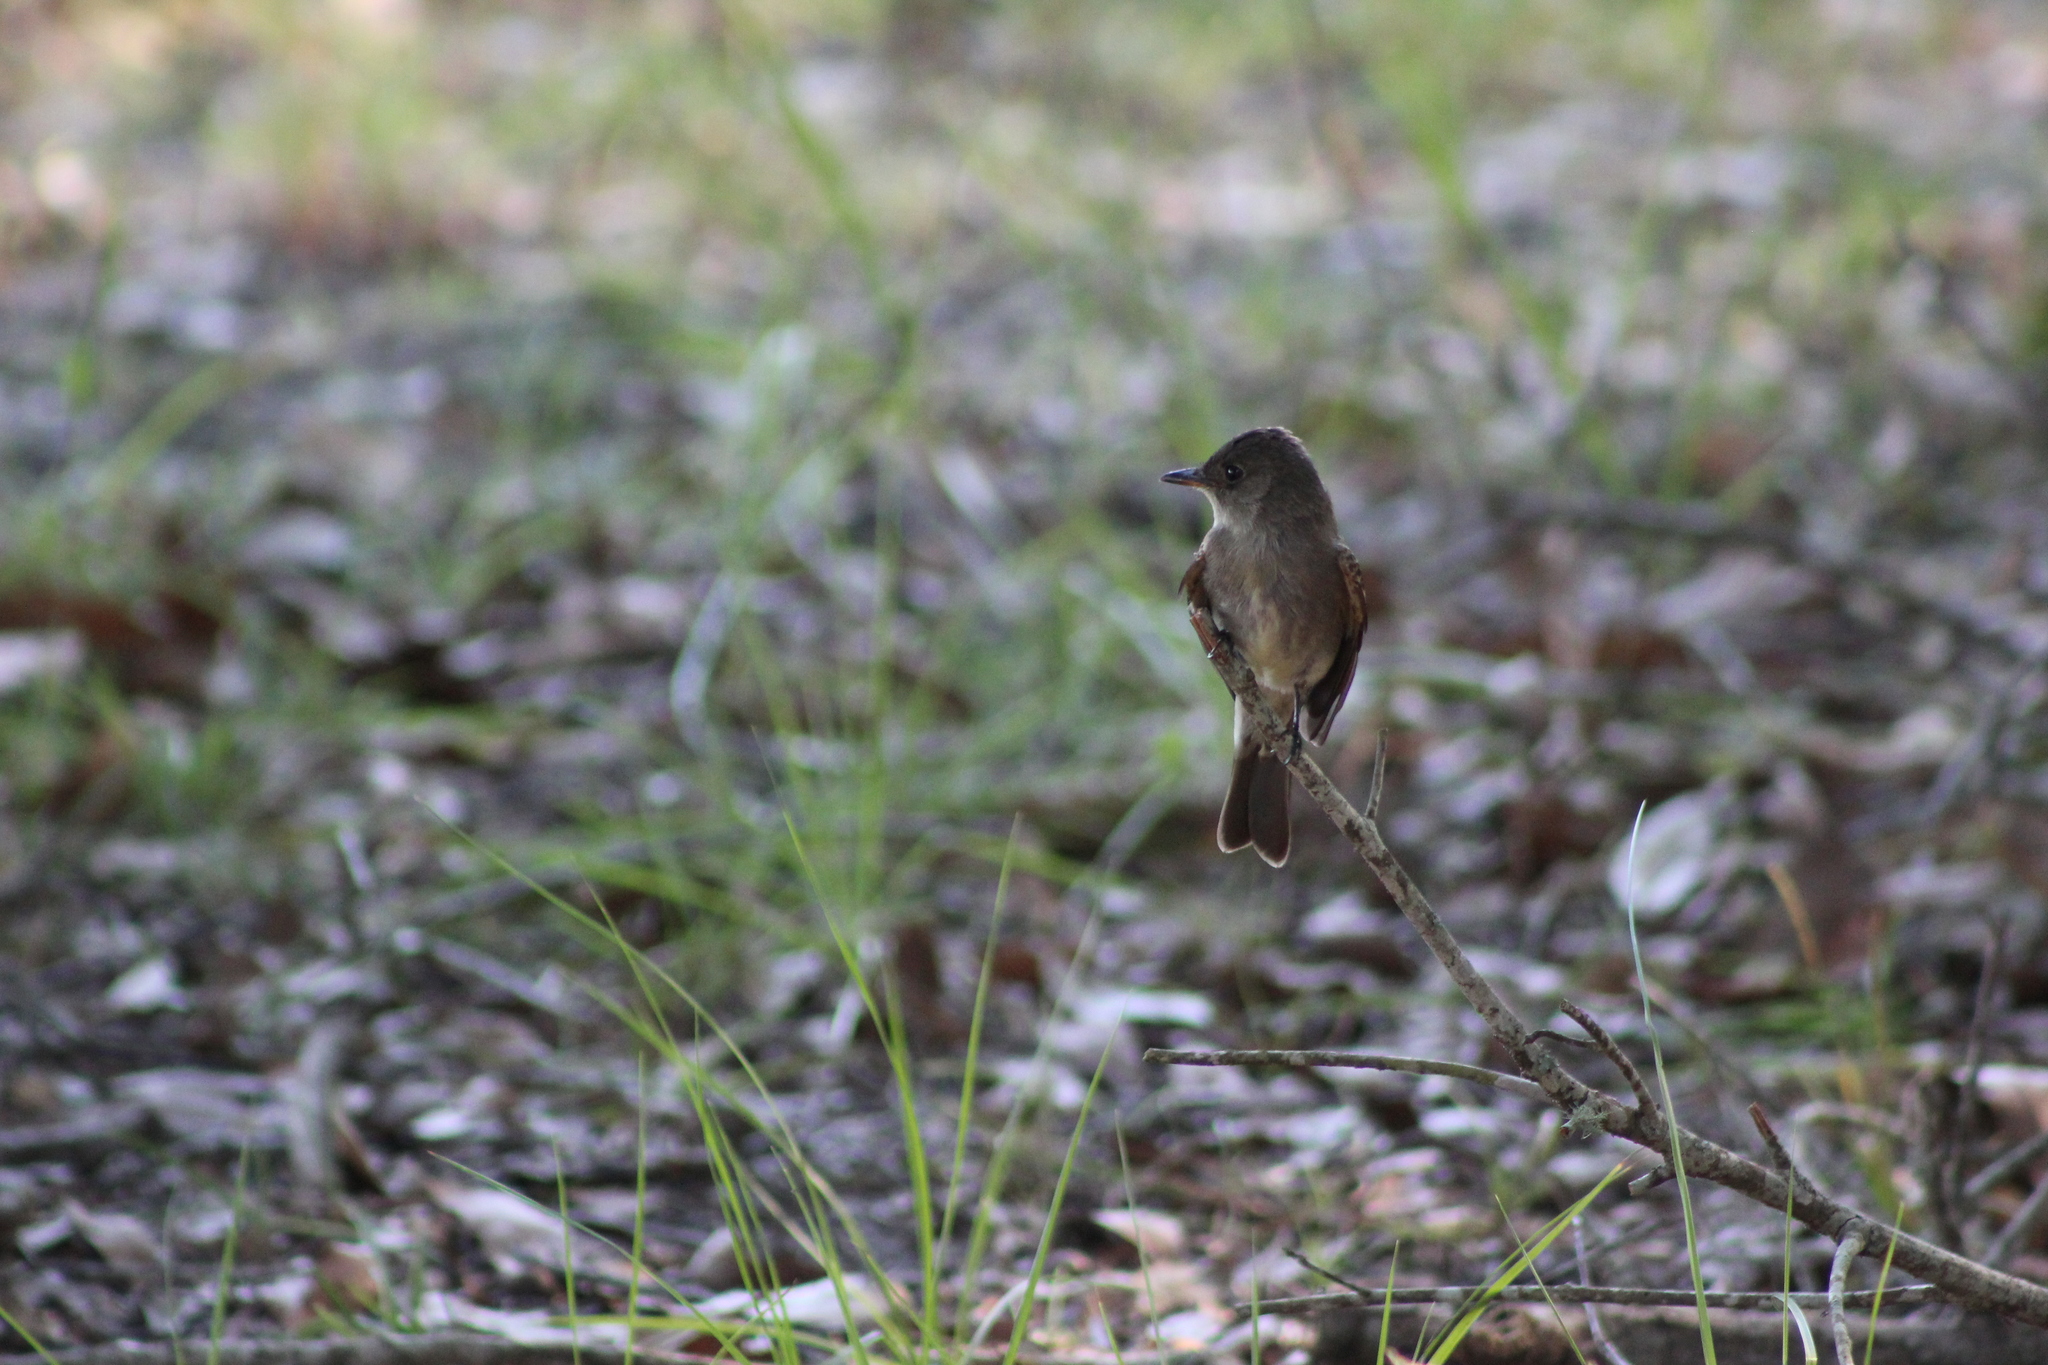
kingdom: Animalia
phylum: Chordata
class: Aves
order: Passeriformes
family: Tyrannidae
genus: Contopus
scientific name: Contopus virens
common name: Eastern wood-pewee
